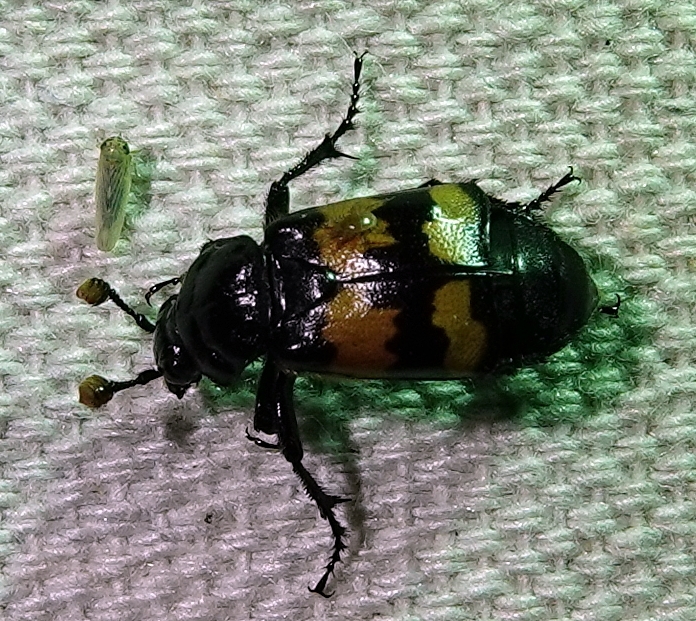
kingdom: Animalia
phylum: Arthropoda
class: Insecta
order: Coleoptera
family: Staphylinidae
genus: Nicrophorus
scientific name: Nicrophorus marginatus
